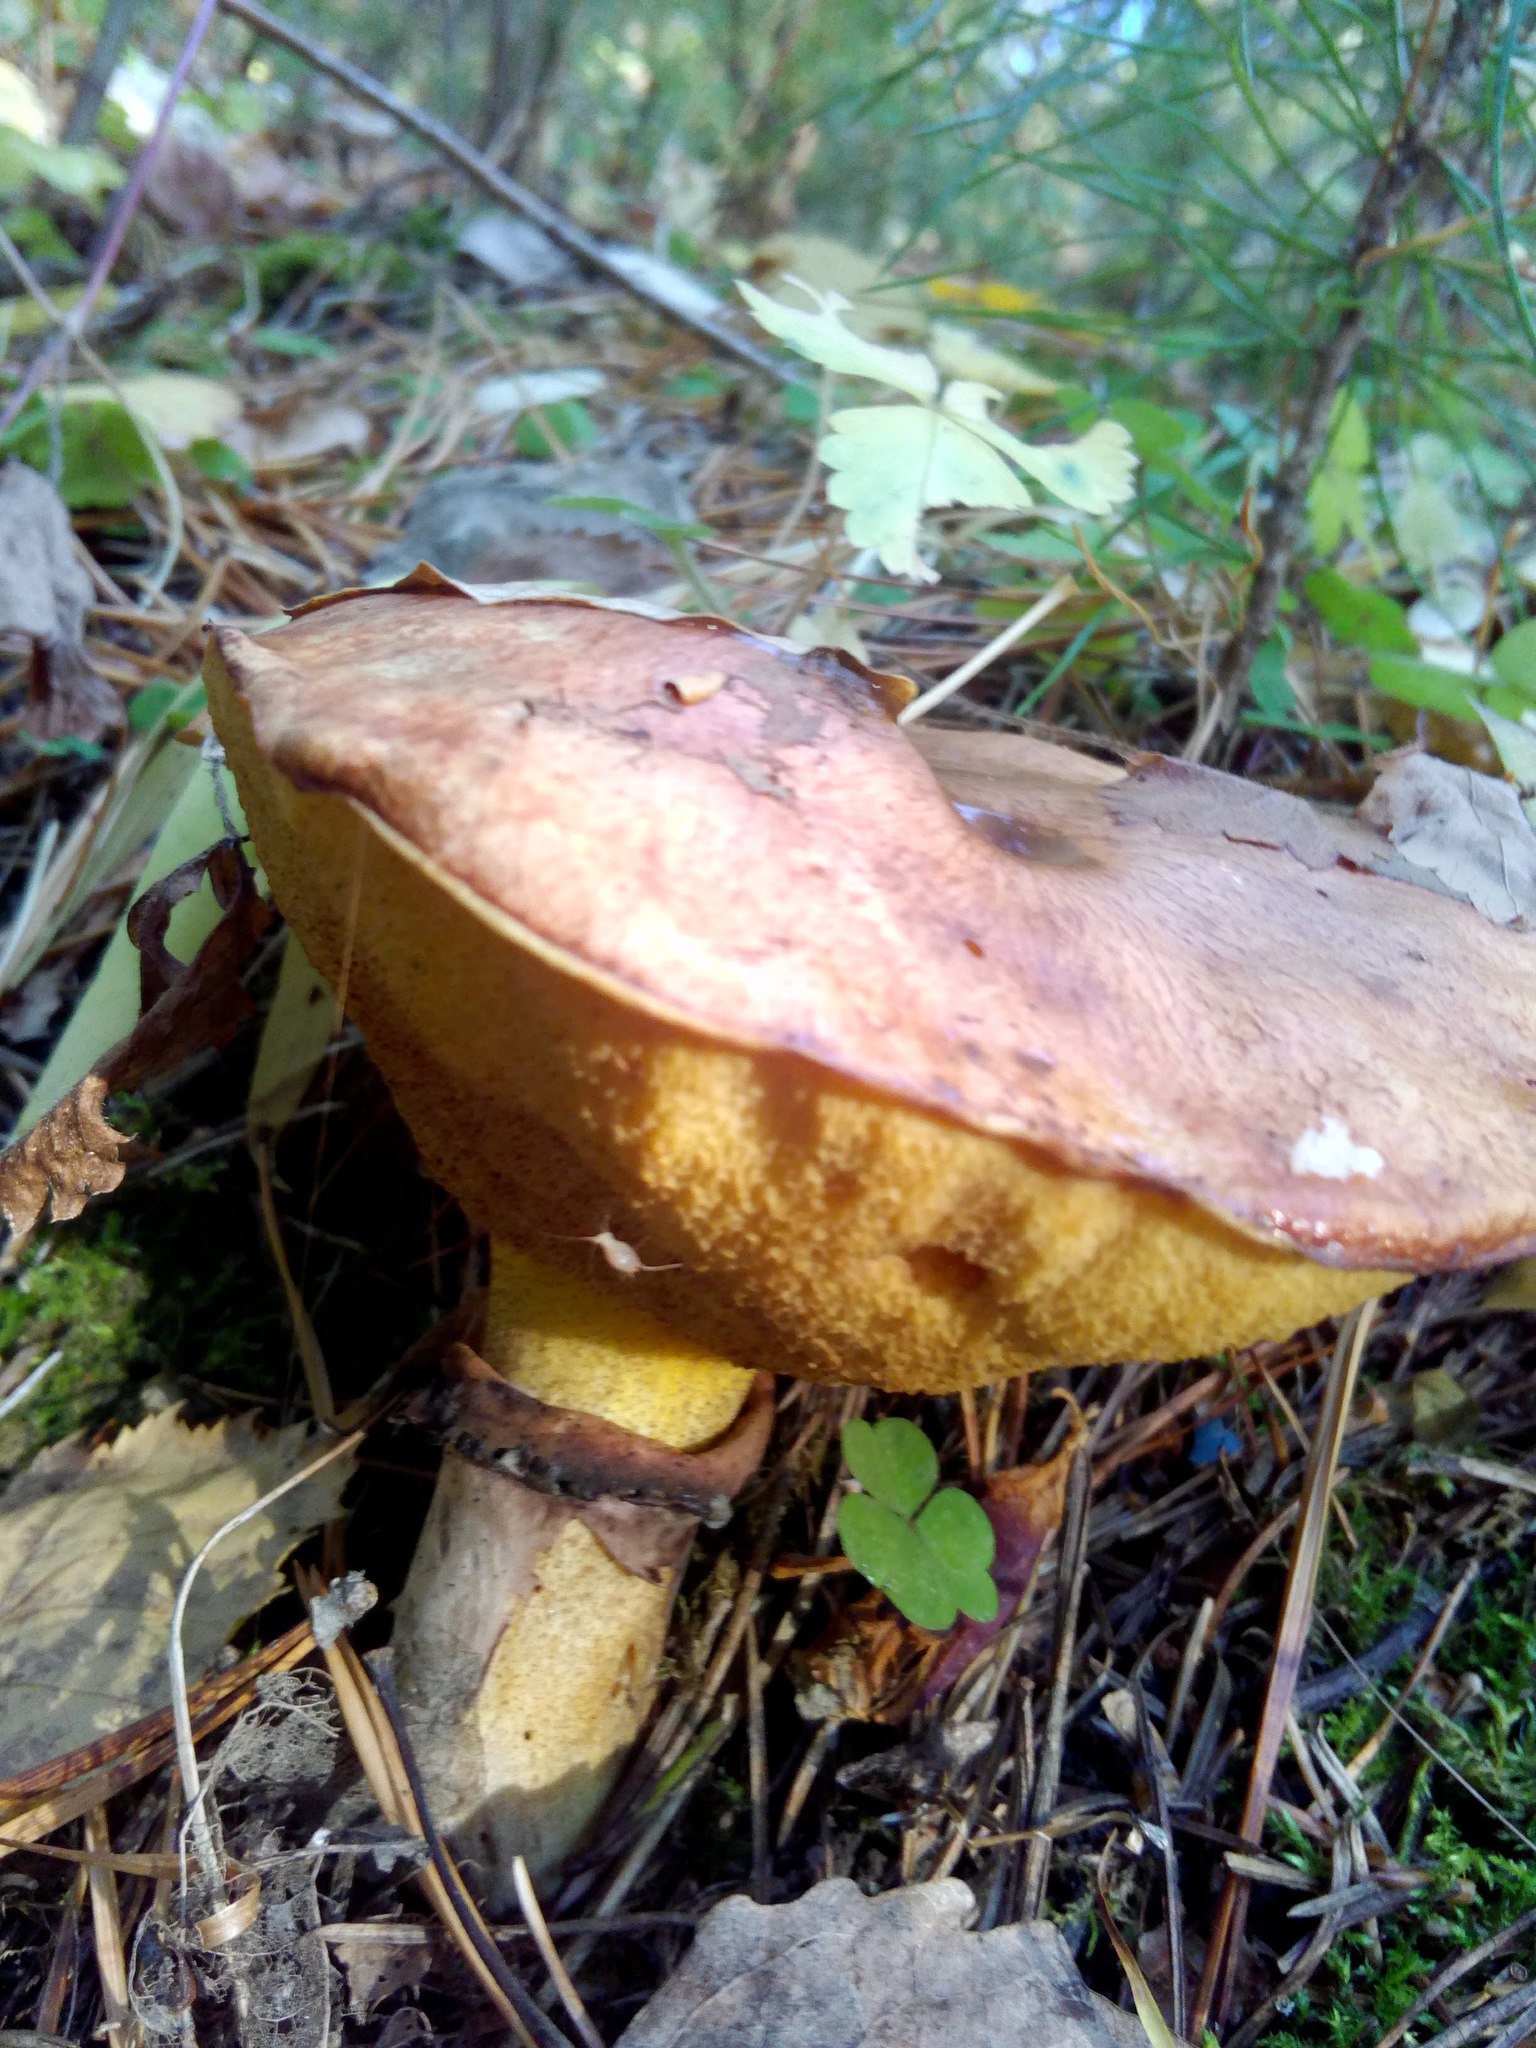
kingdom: Fungi
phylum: Basidiomycota
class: Agaricomycetes
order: Boletales
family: Suillaceae
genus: Suillus
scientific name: Suillus luteus
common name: Slippery jack
